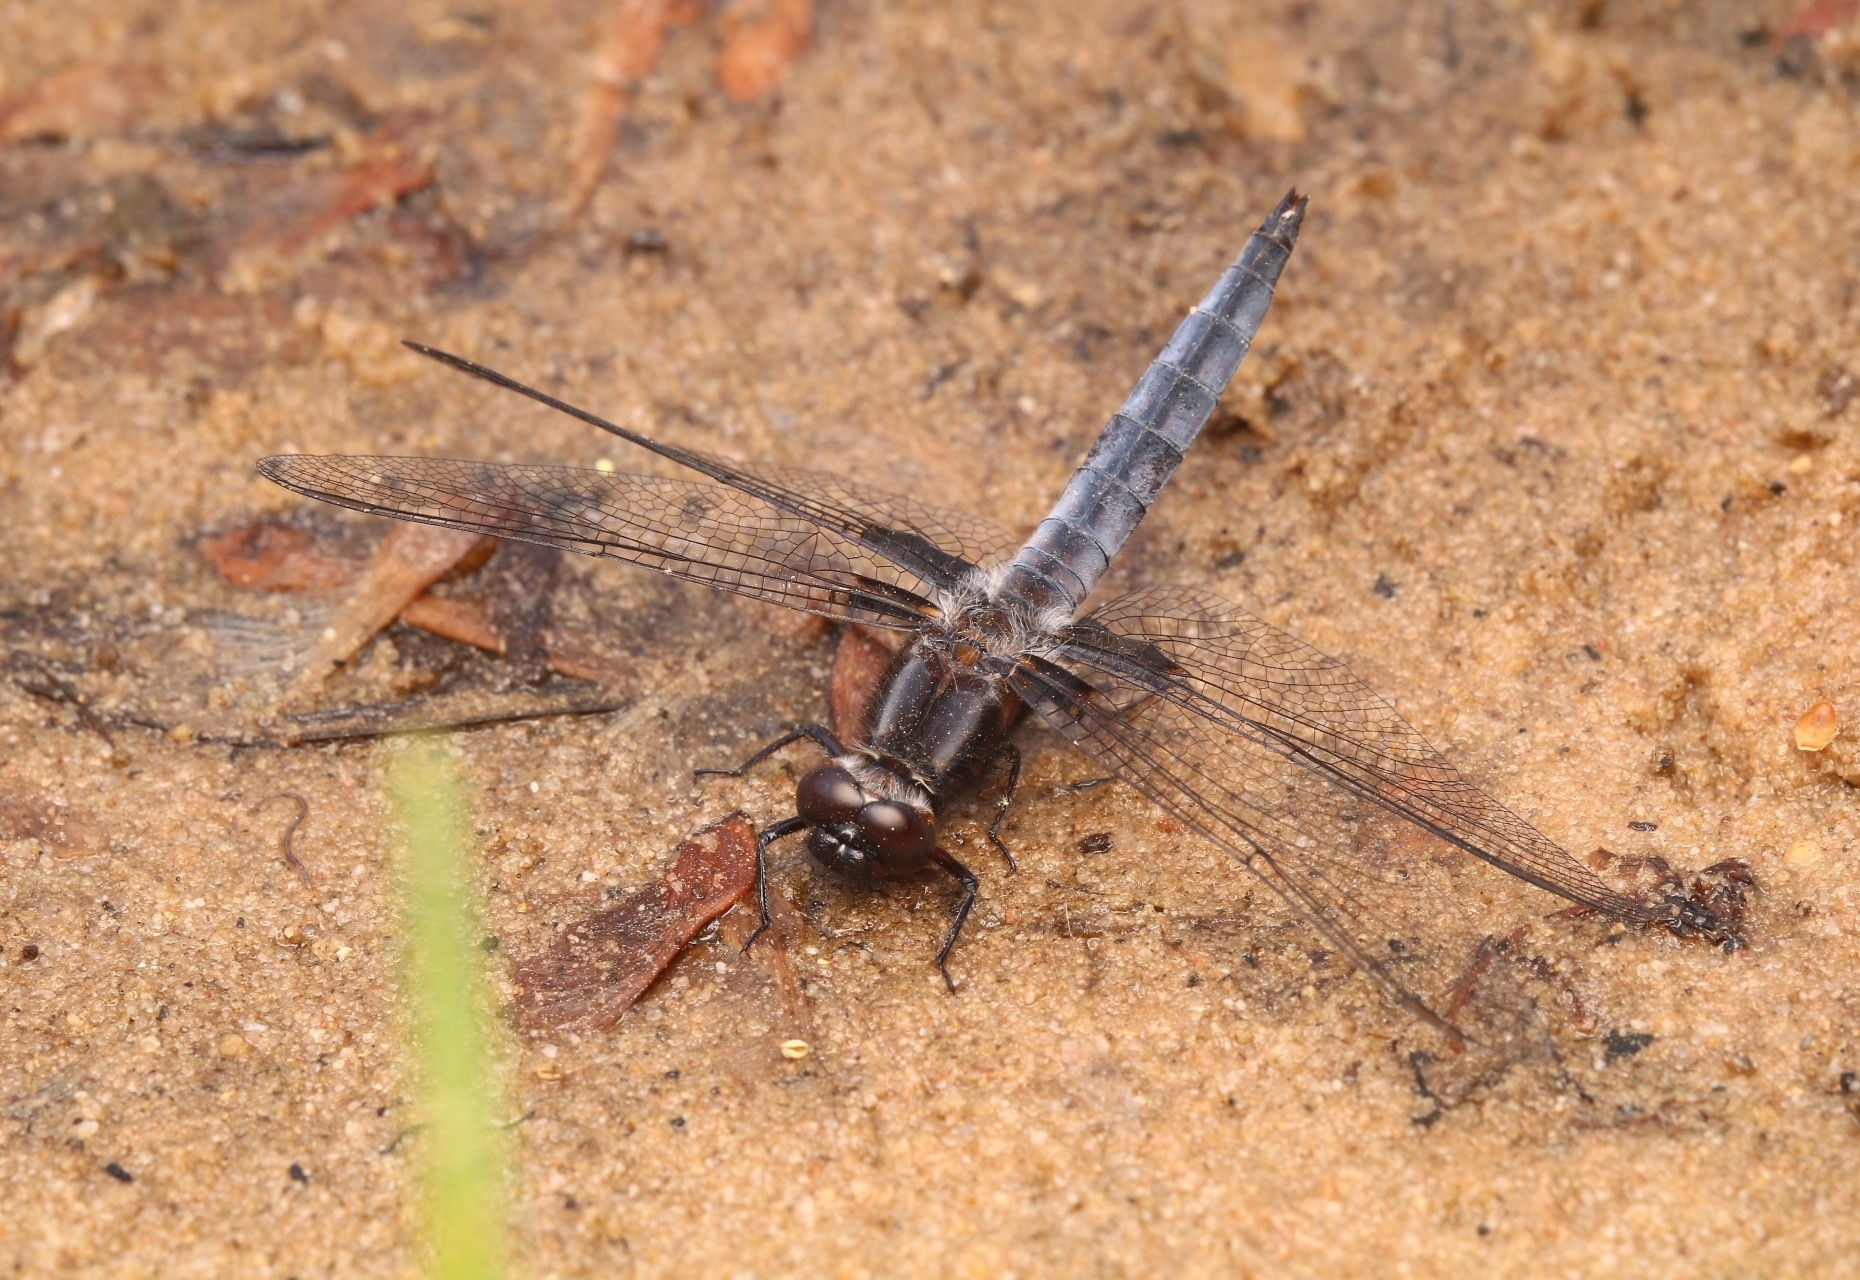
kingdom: Animalia
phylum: Arthropoda
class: Insecta
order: Odonata
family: Libellulidae
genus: Ladona
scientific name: Ladona deplanata
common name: Blue corporal
